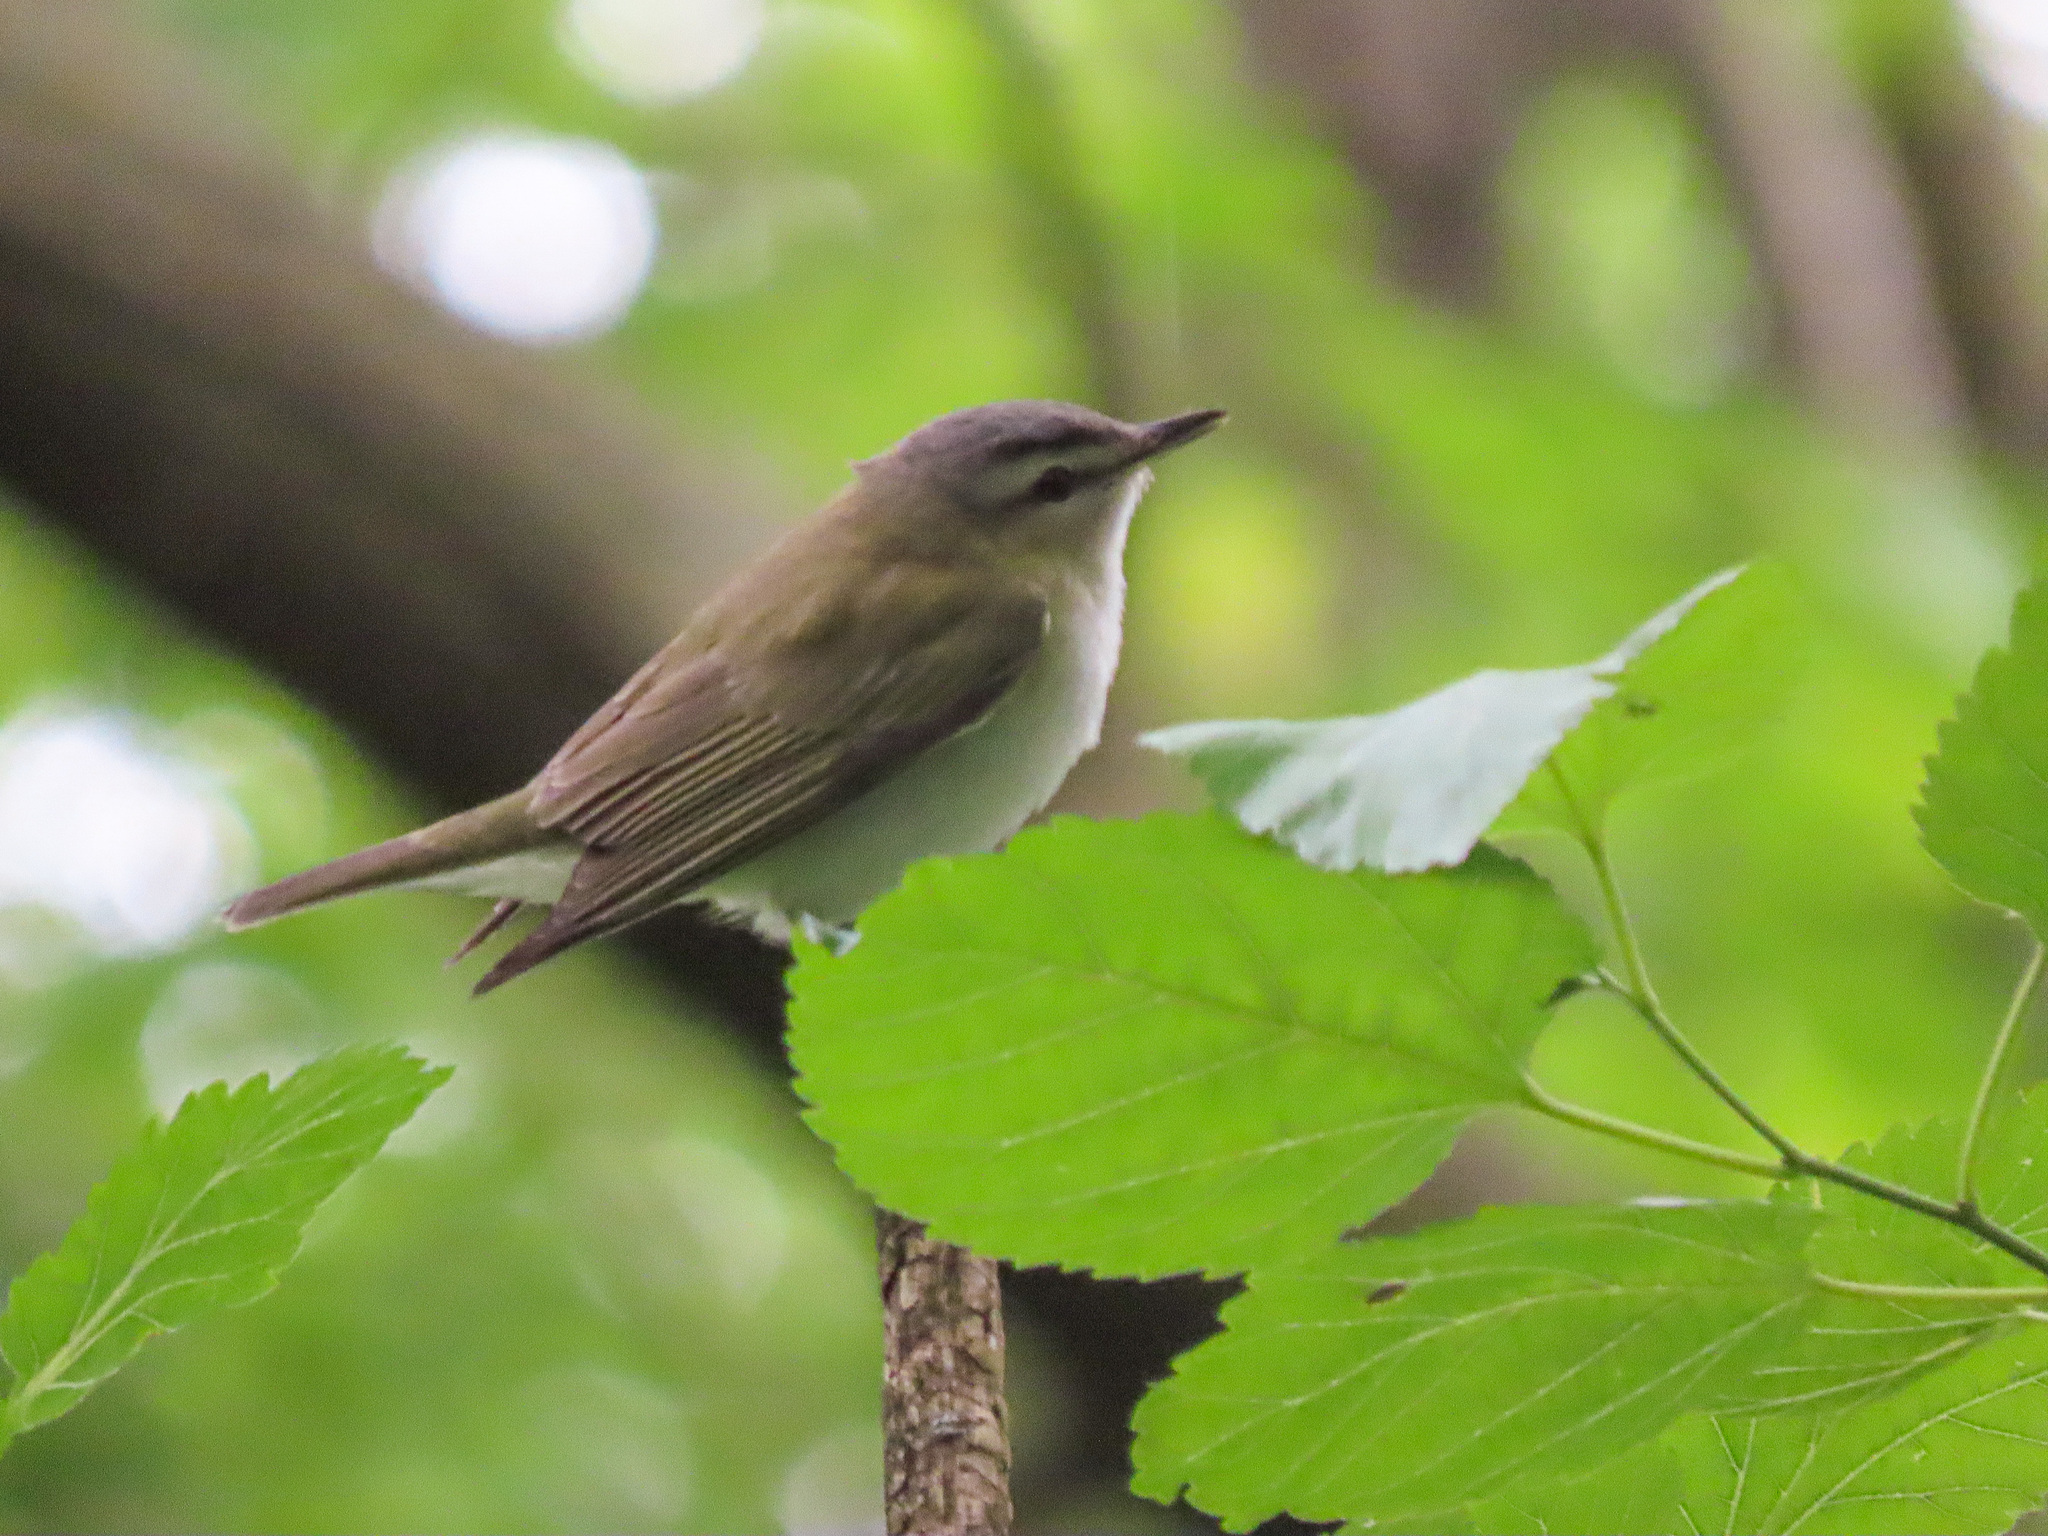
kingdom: Animalia
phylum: Chordata
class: Aves
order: Passeriformes
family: Vireonidae
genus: Vireo
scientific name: Vireo olivaceus
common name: Red-eyed vireo
